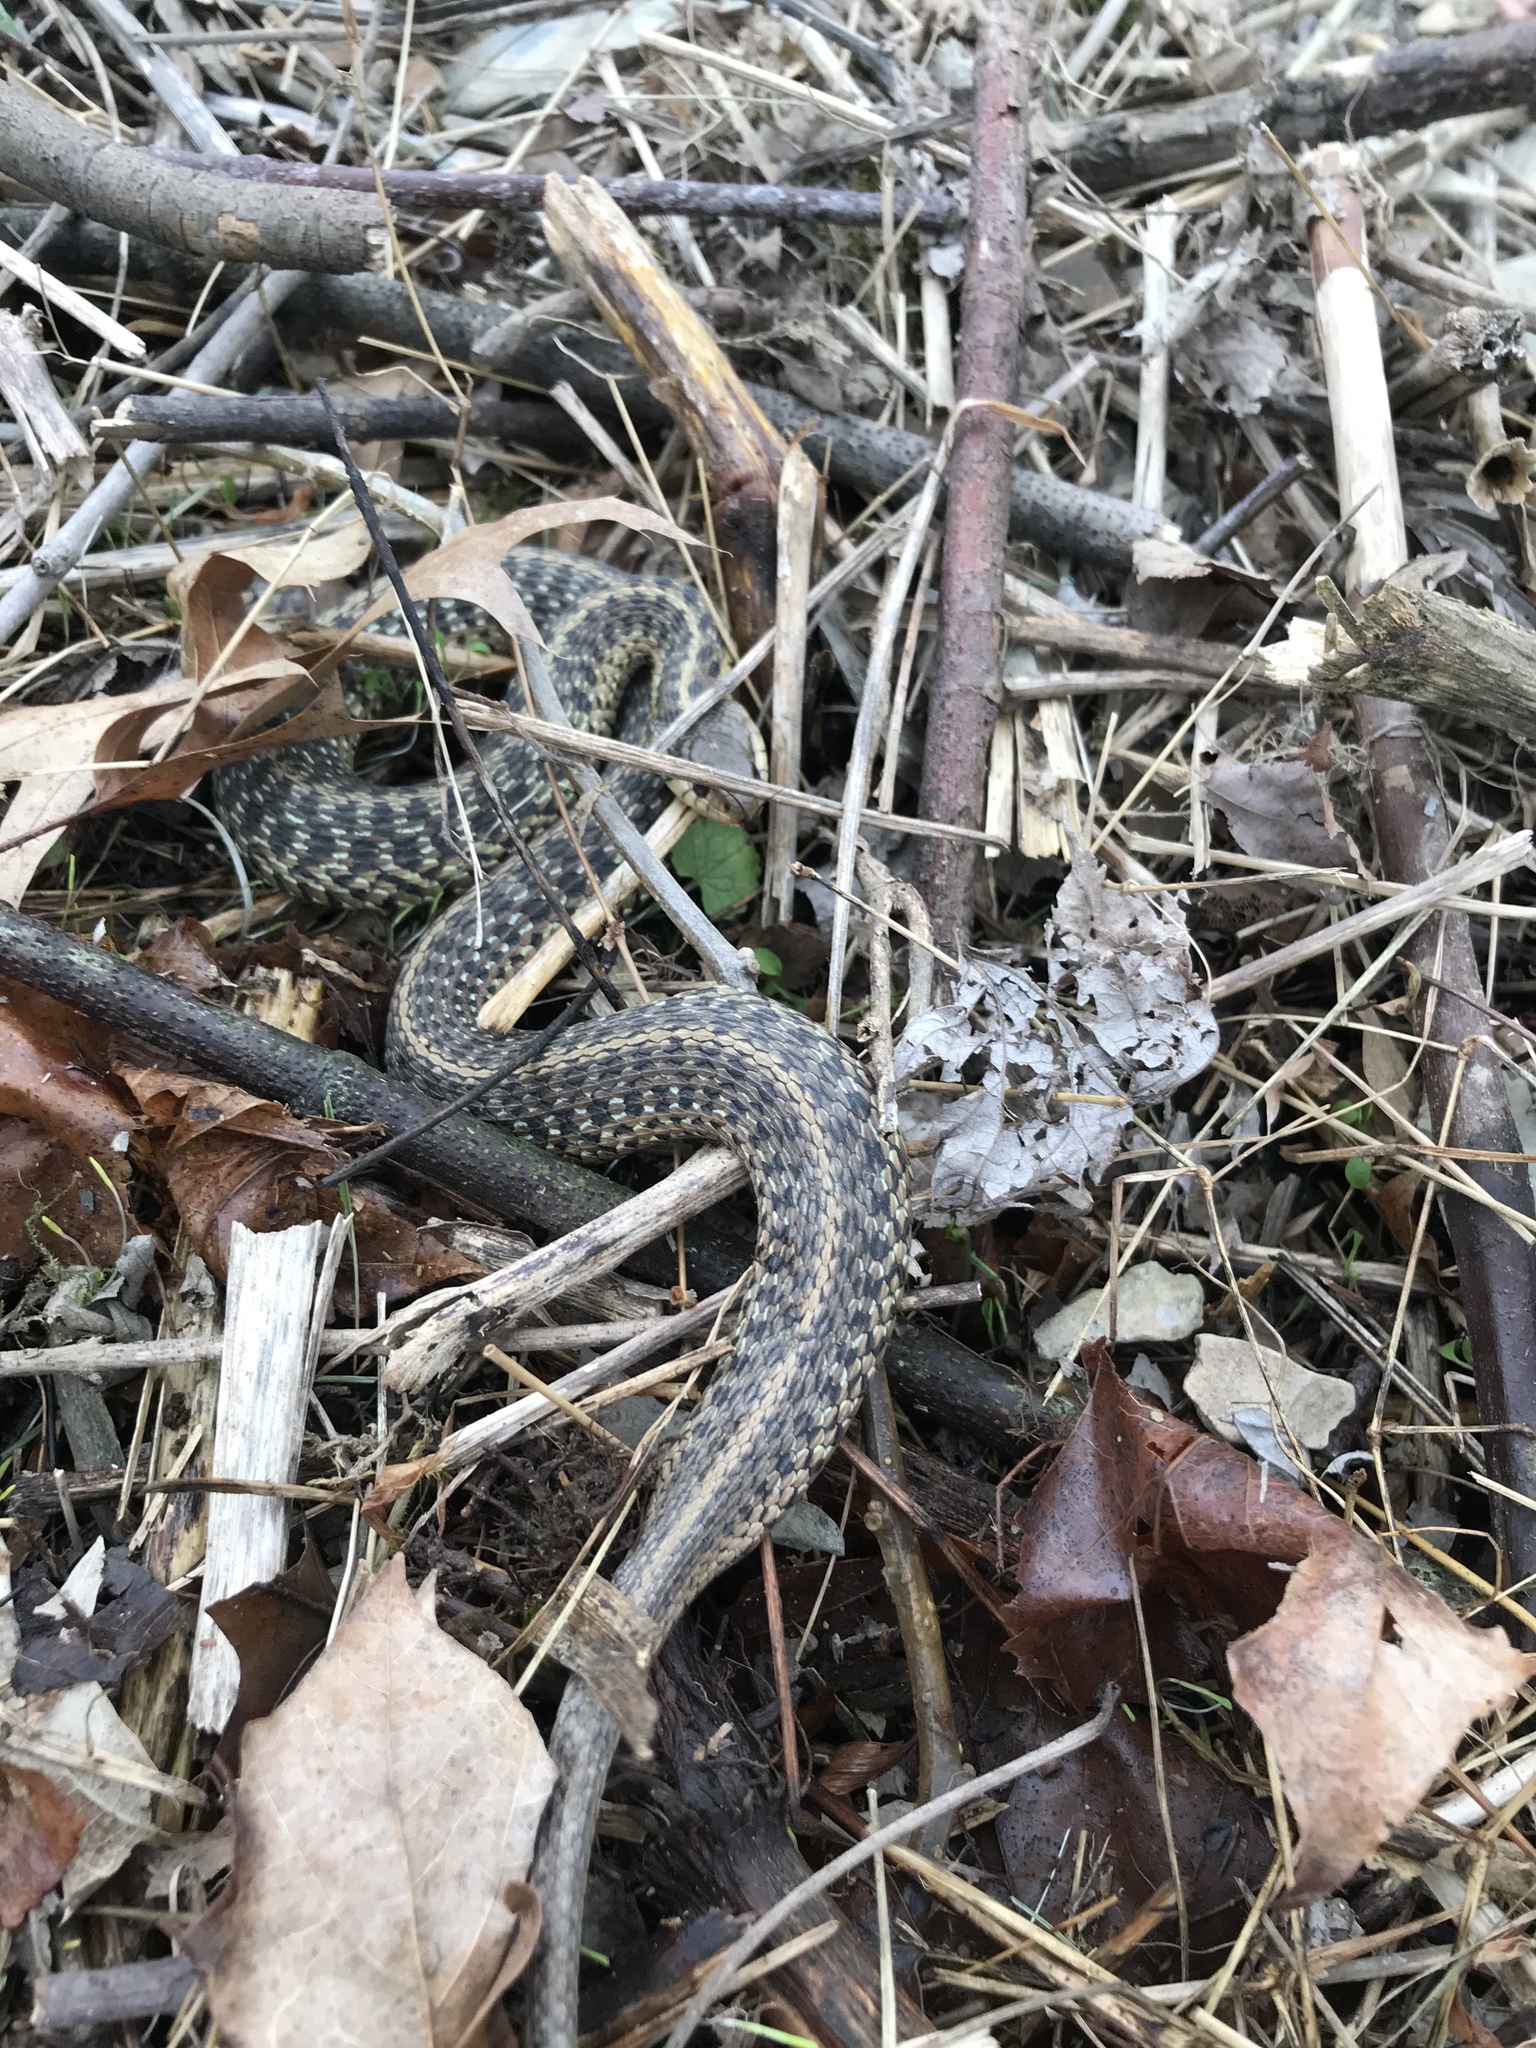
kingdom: Animalia
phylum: Chordata
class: Squamata
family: Colubridae
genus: Thamnophis
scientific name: Thamnophis sirtalis
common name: Common garter snake
